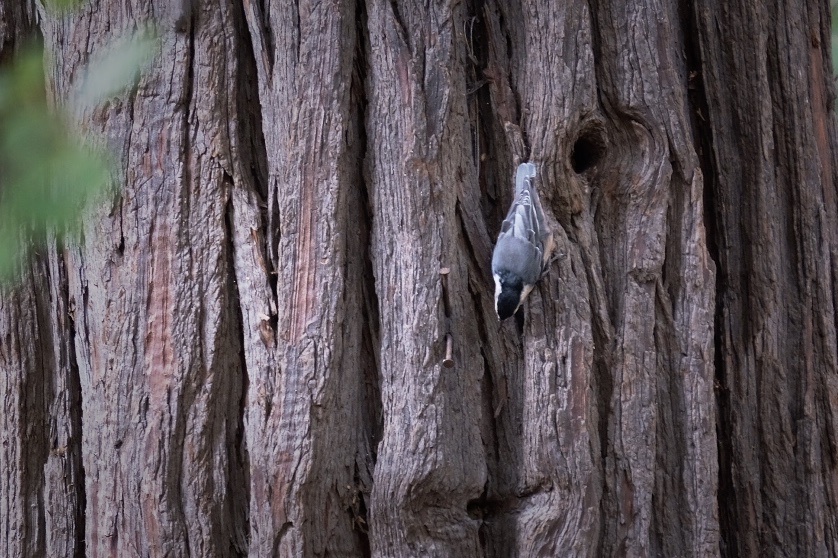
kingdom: Animalia
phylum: Chordata
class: Aves
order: Passeriformes
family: Sittidae
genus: Sitta
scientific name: Sitta canadensis
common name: Red-breasted nuthatch
